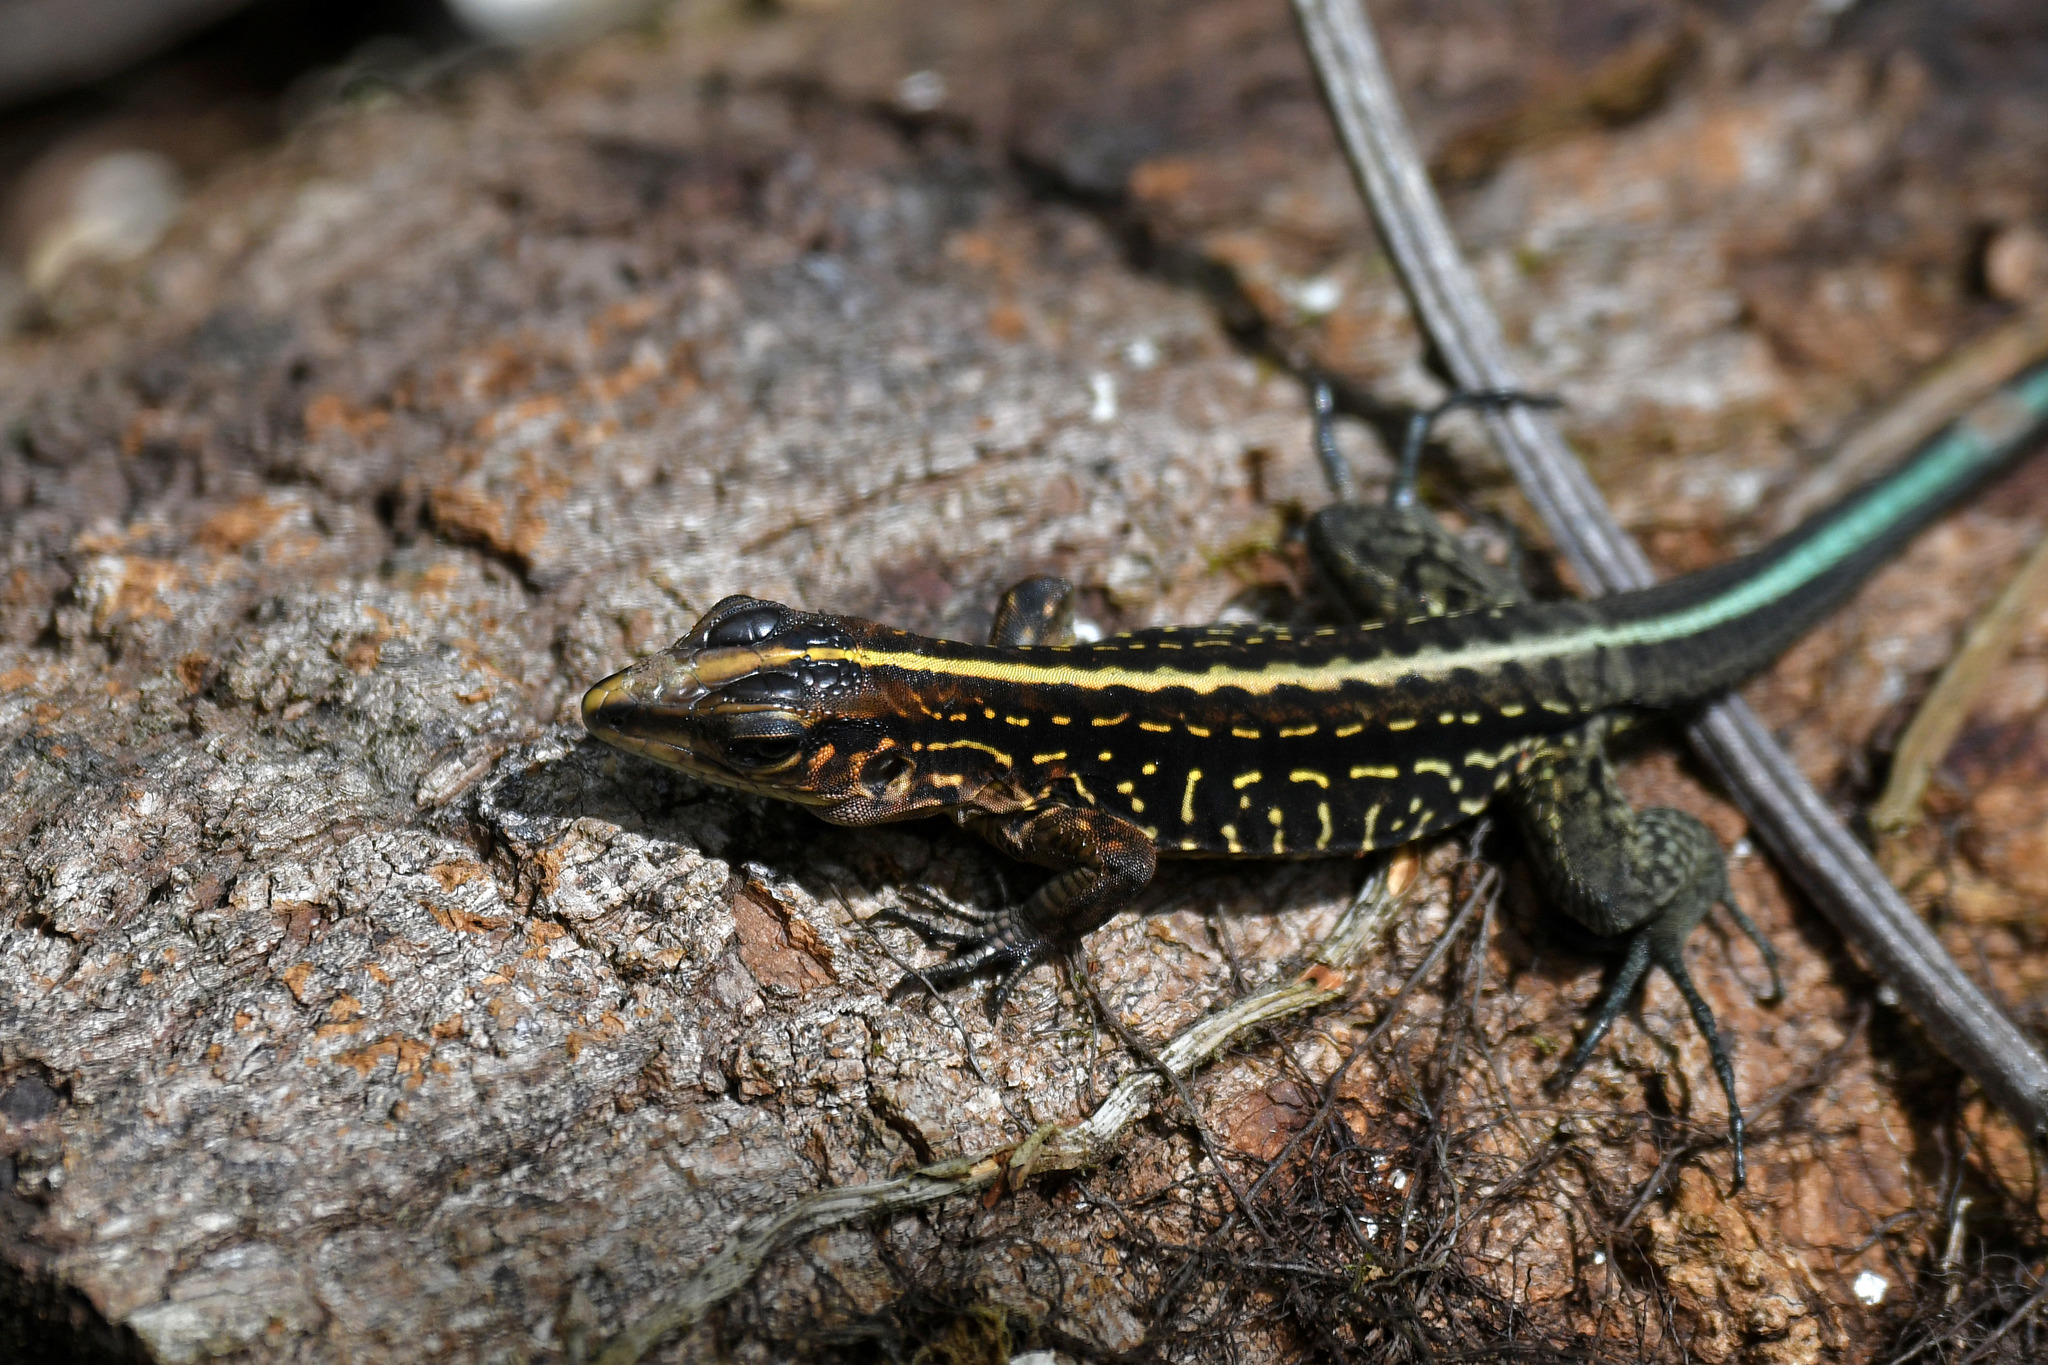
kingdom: Animalia
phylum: Chordata
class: Squamata
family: Teiidae
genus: Holcosus
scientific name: Holcosus festivus
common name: Middle american ameiva
